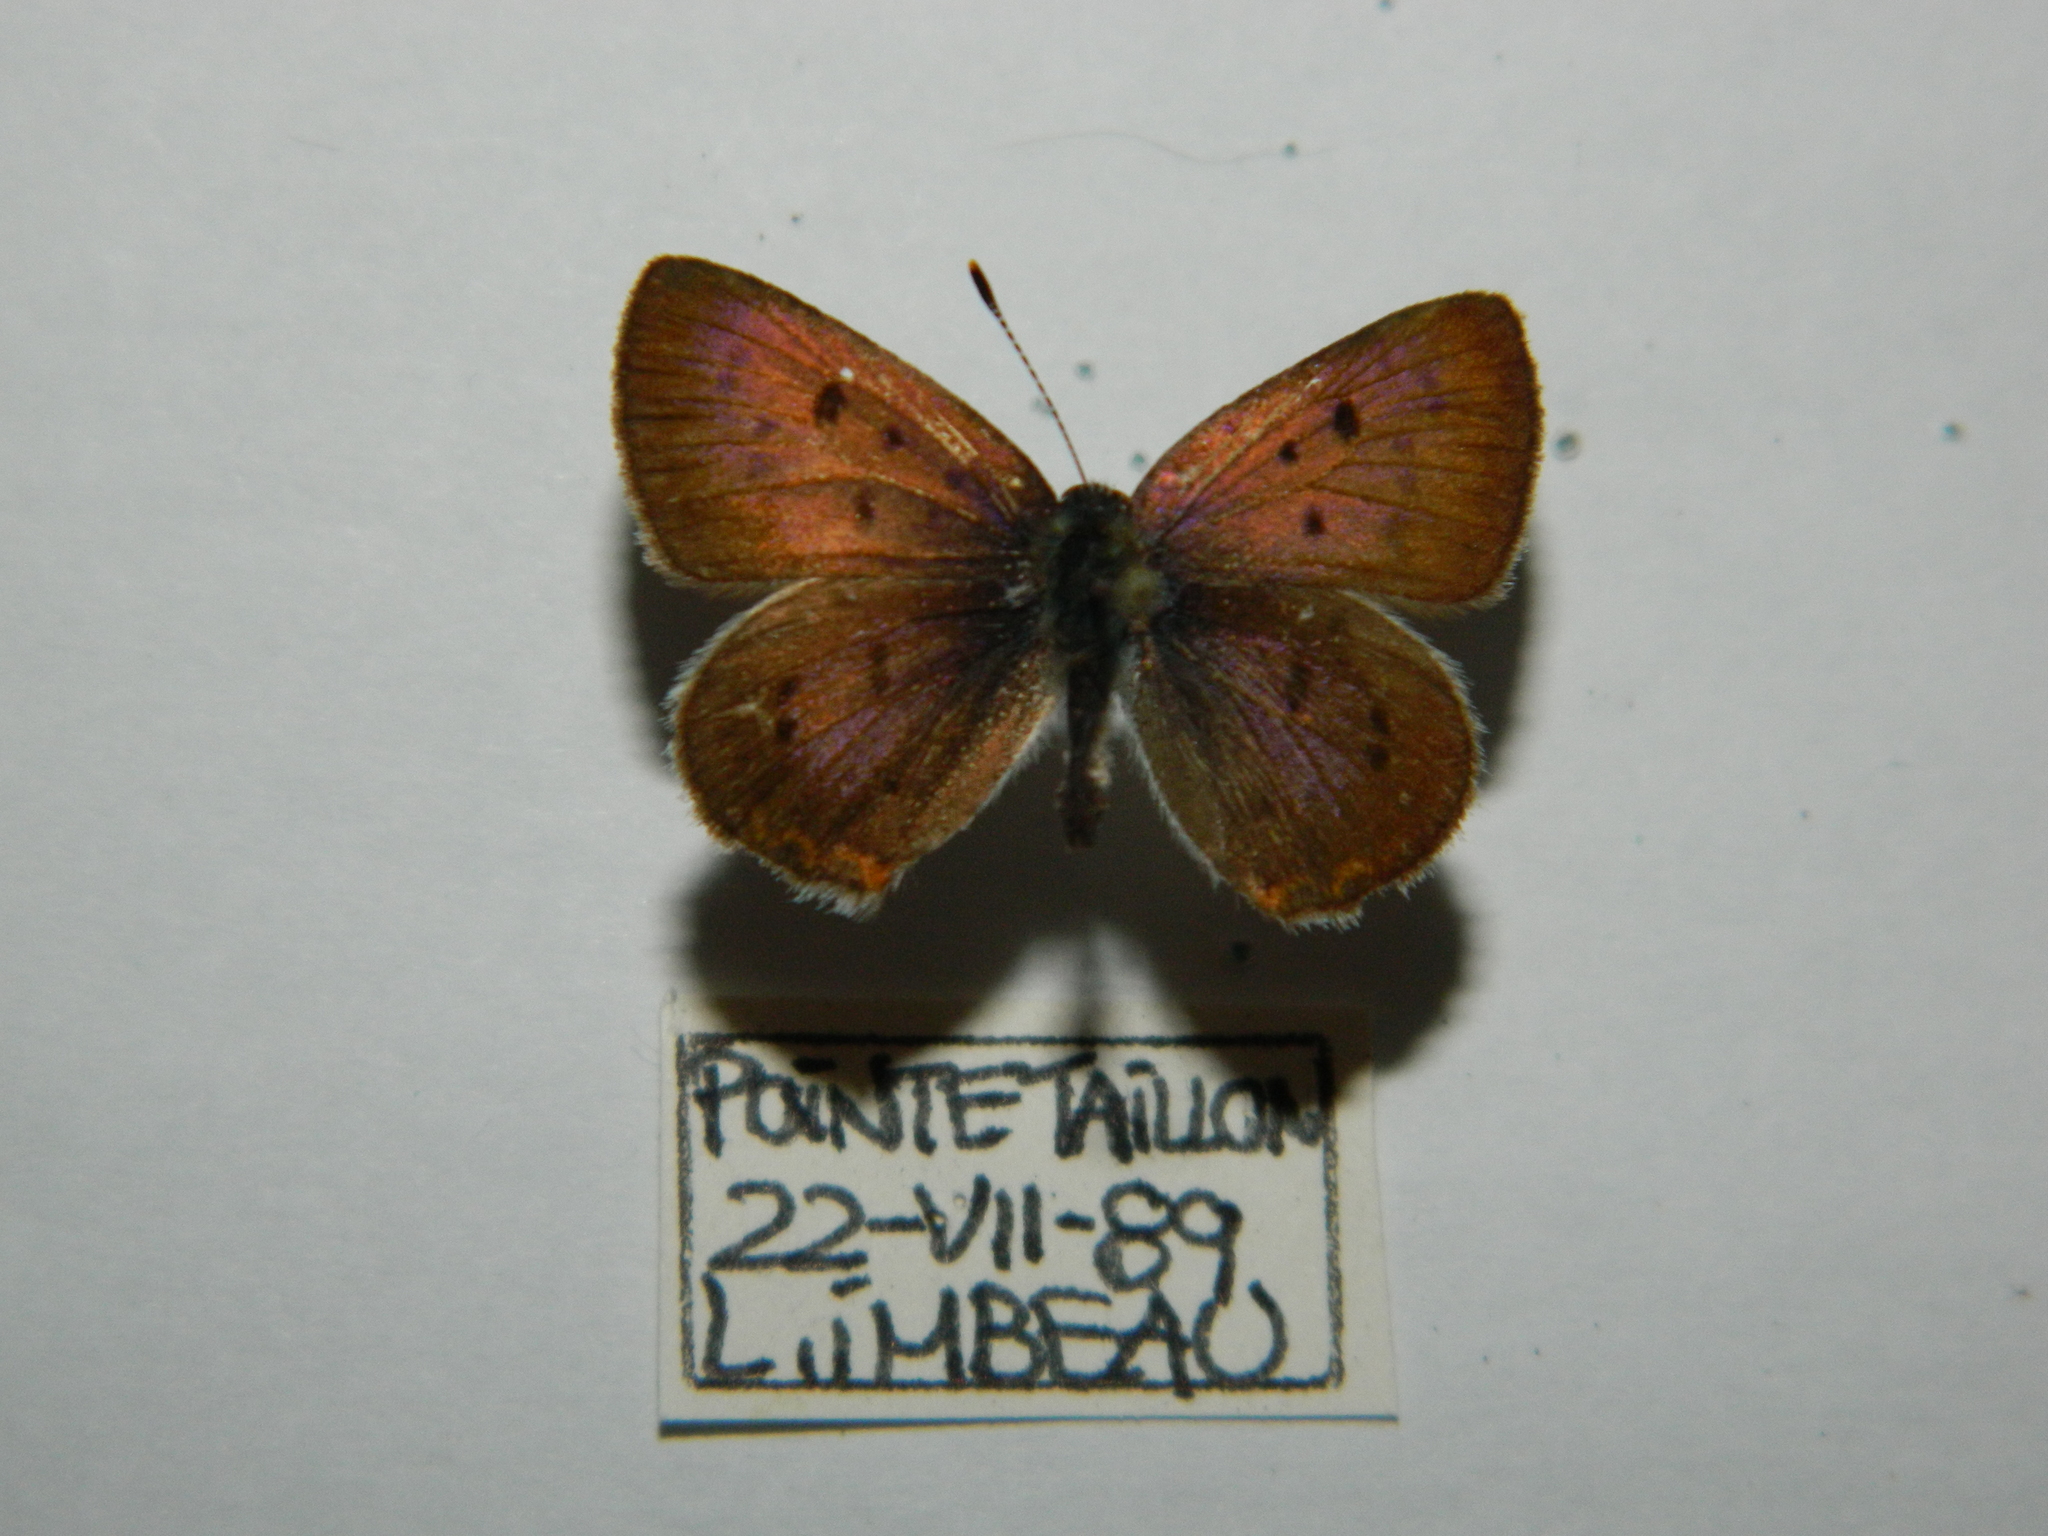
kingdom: Animalia
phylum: Arthropoda
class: Insecta
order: Lepidoptera
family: Lycaenidae
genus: Tharsalea
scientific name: Tharsalea epixanthe
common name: Bog copper
